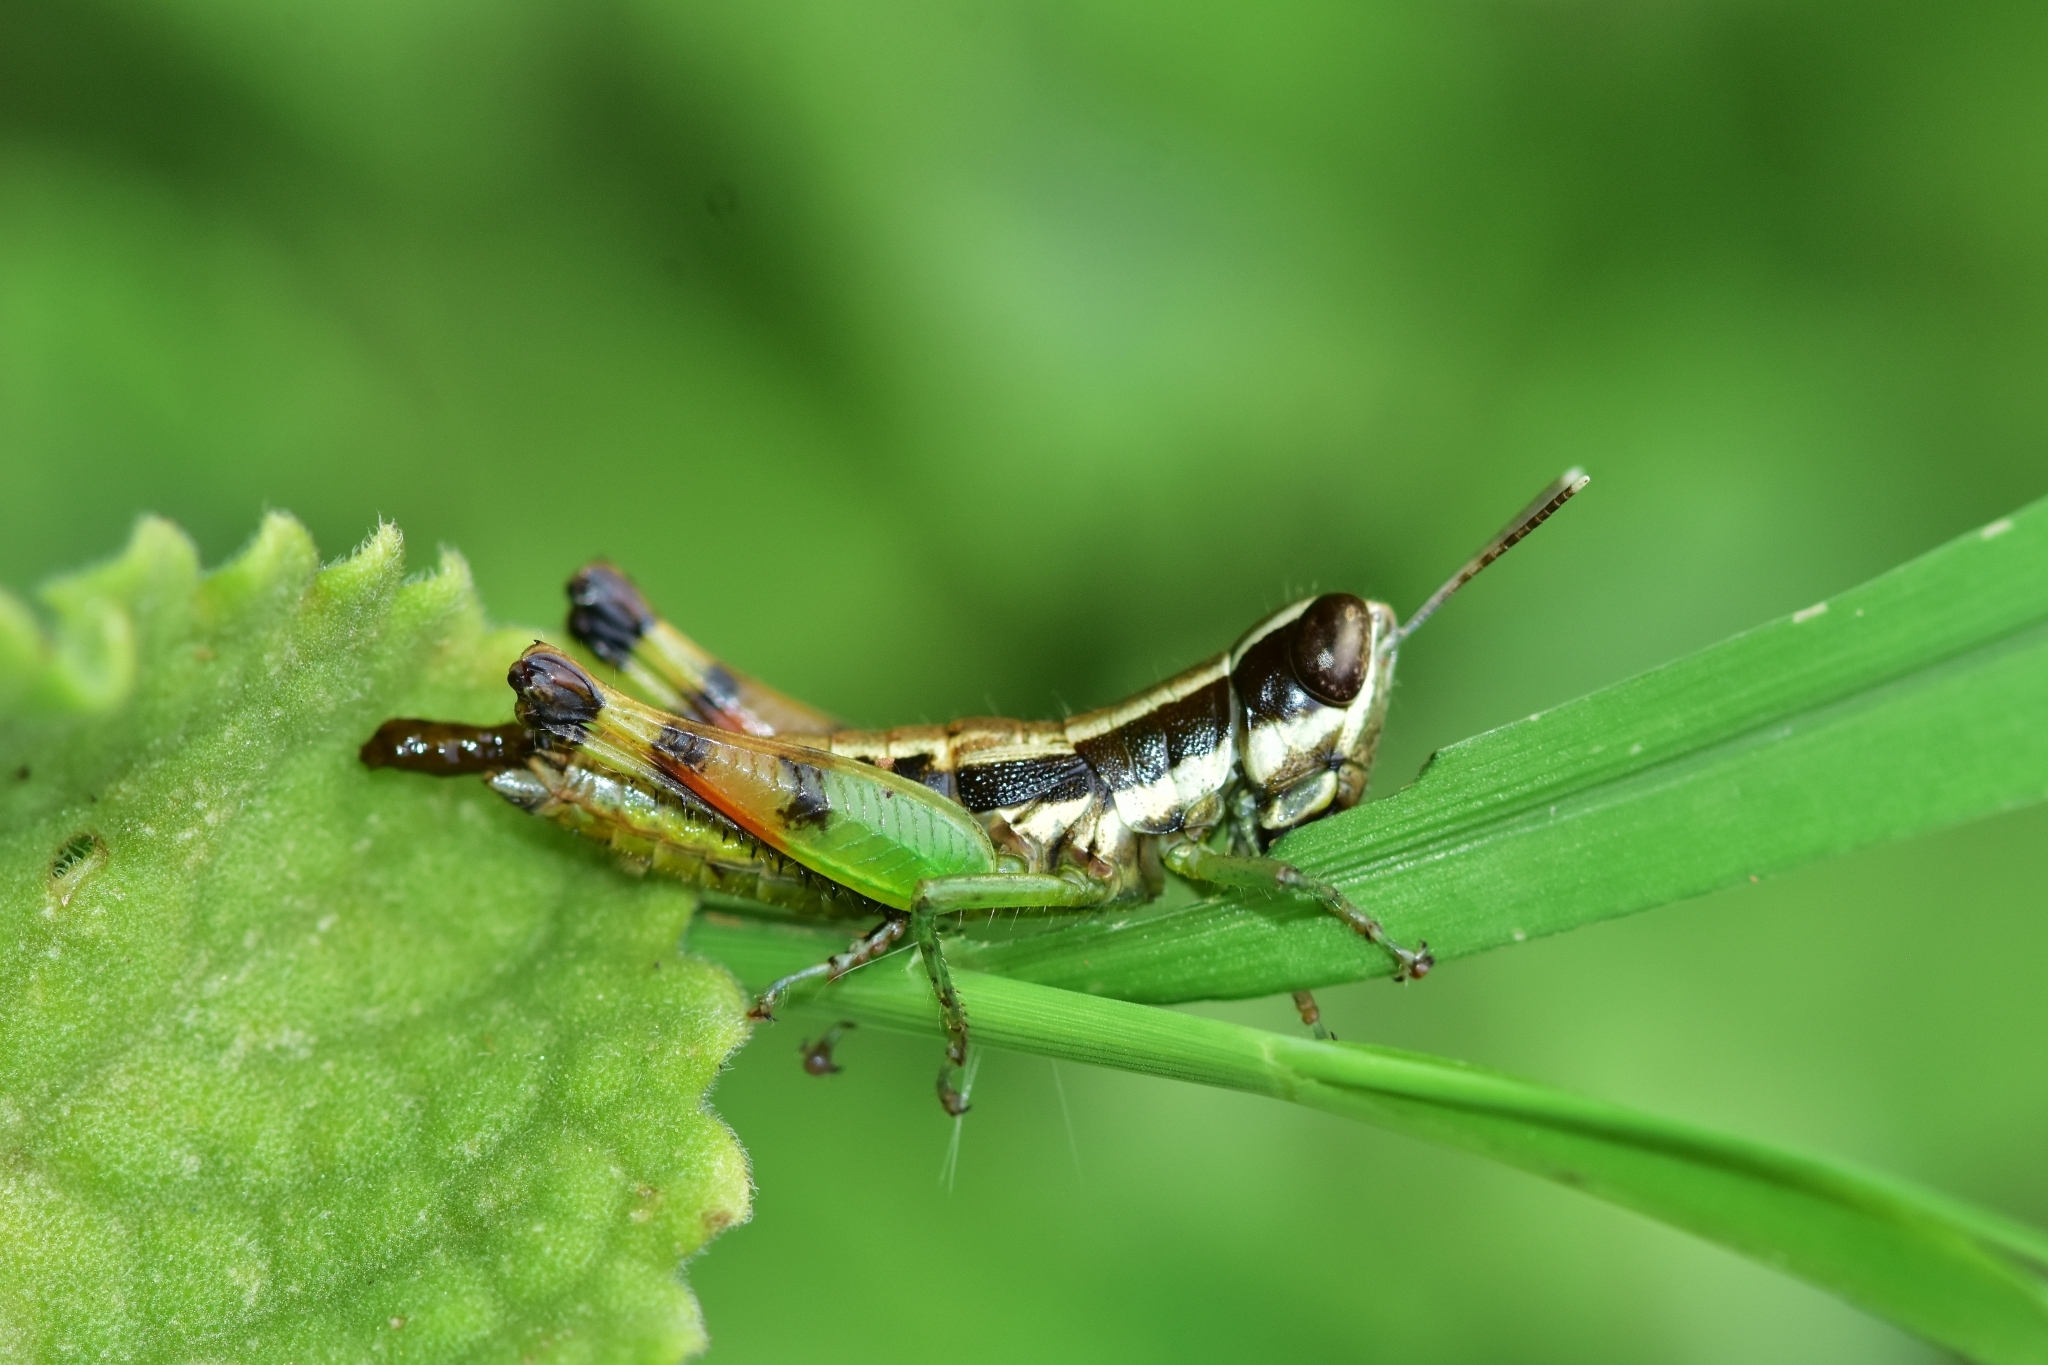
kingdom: Animalia
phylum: Arthropoda
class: Insecta
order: Orthoptera
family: Acrididae
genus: Chitaura
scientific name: Chitaura indica
